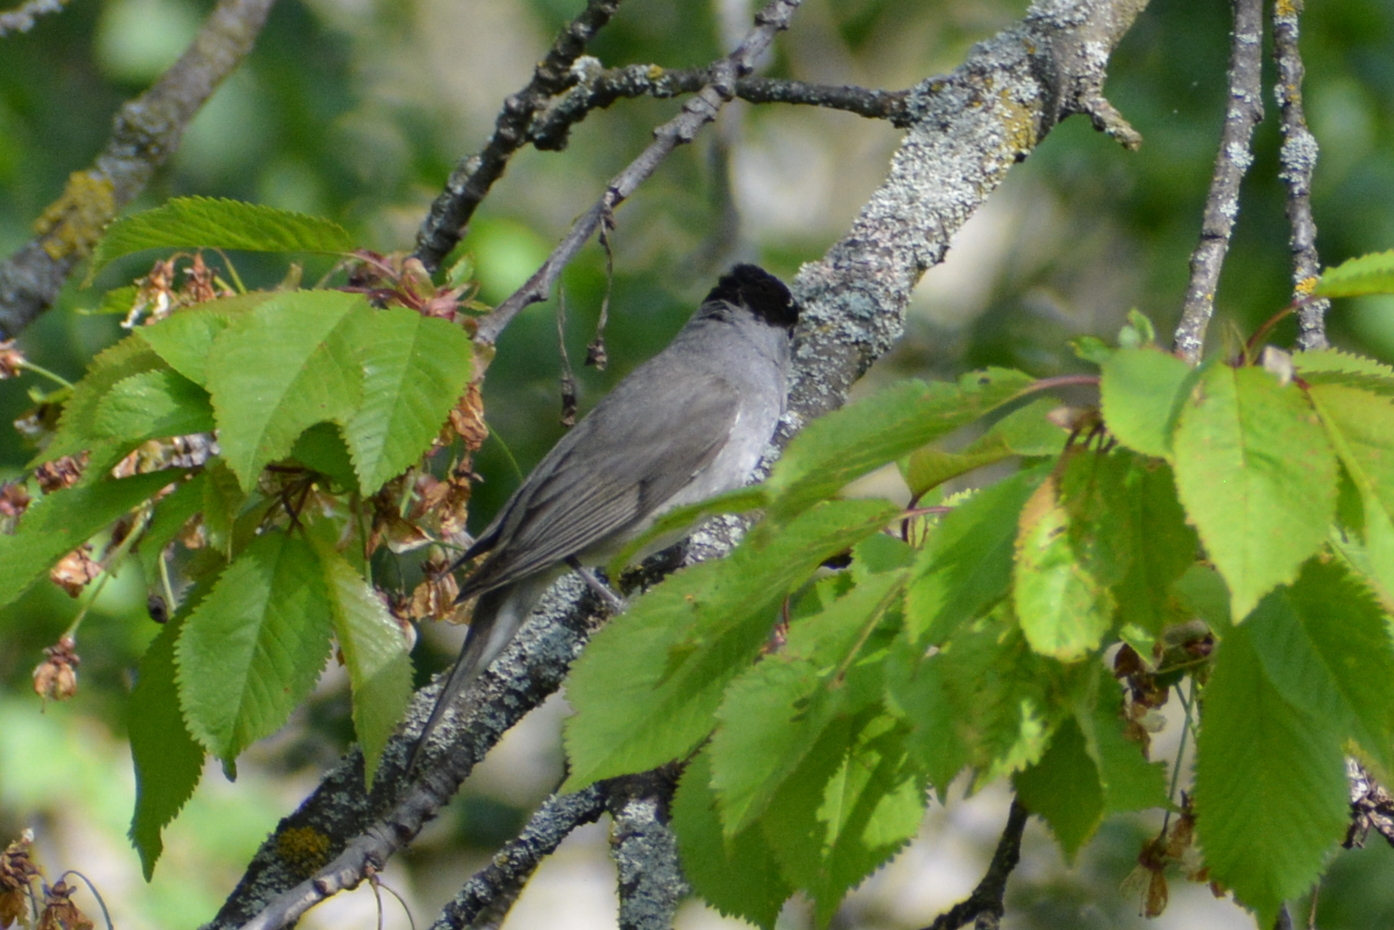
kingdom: Animalia
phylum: Chordata
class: Aves
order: Passeriformes
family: Sylviidae
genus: Sylvia
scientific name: Sylvia atricapilla
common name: Eurasian blackcap
